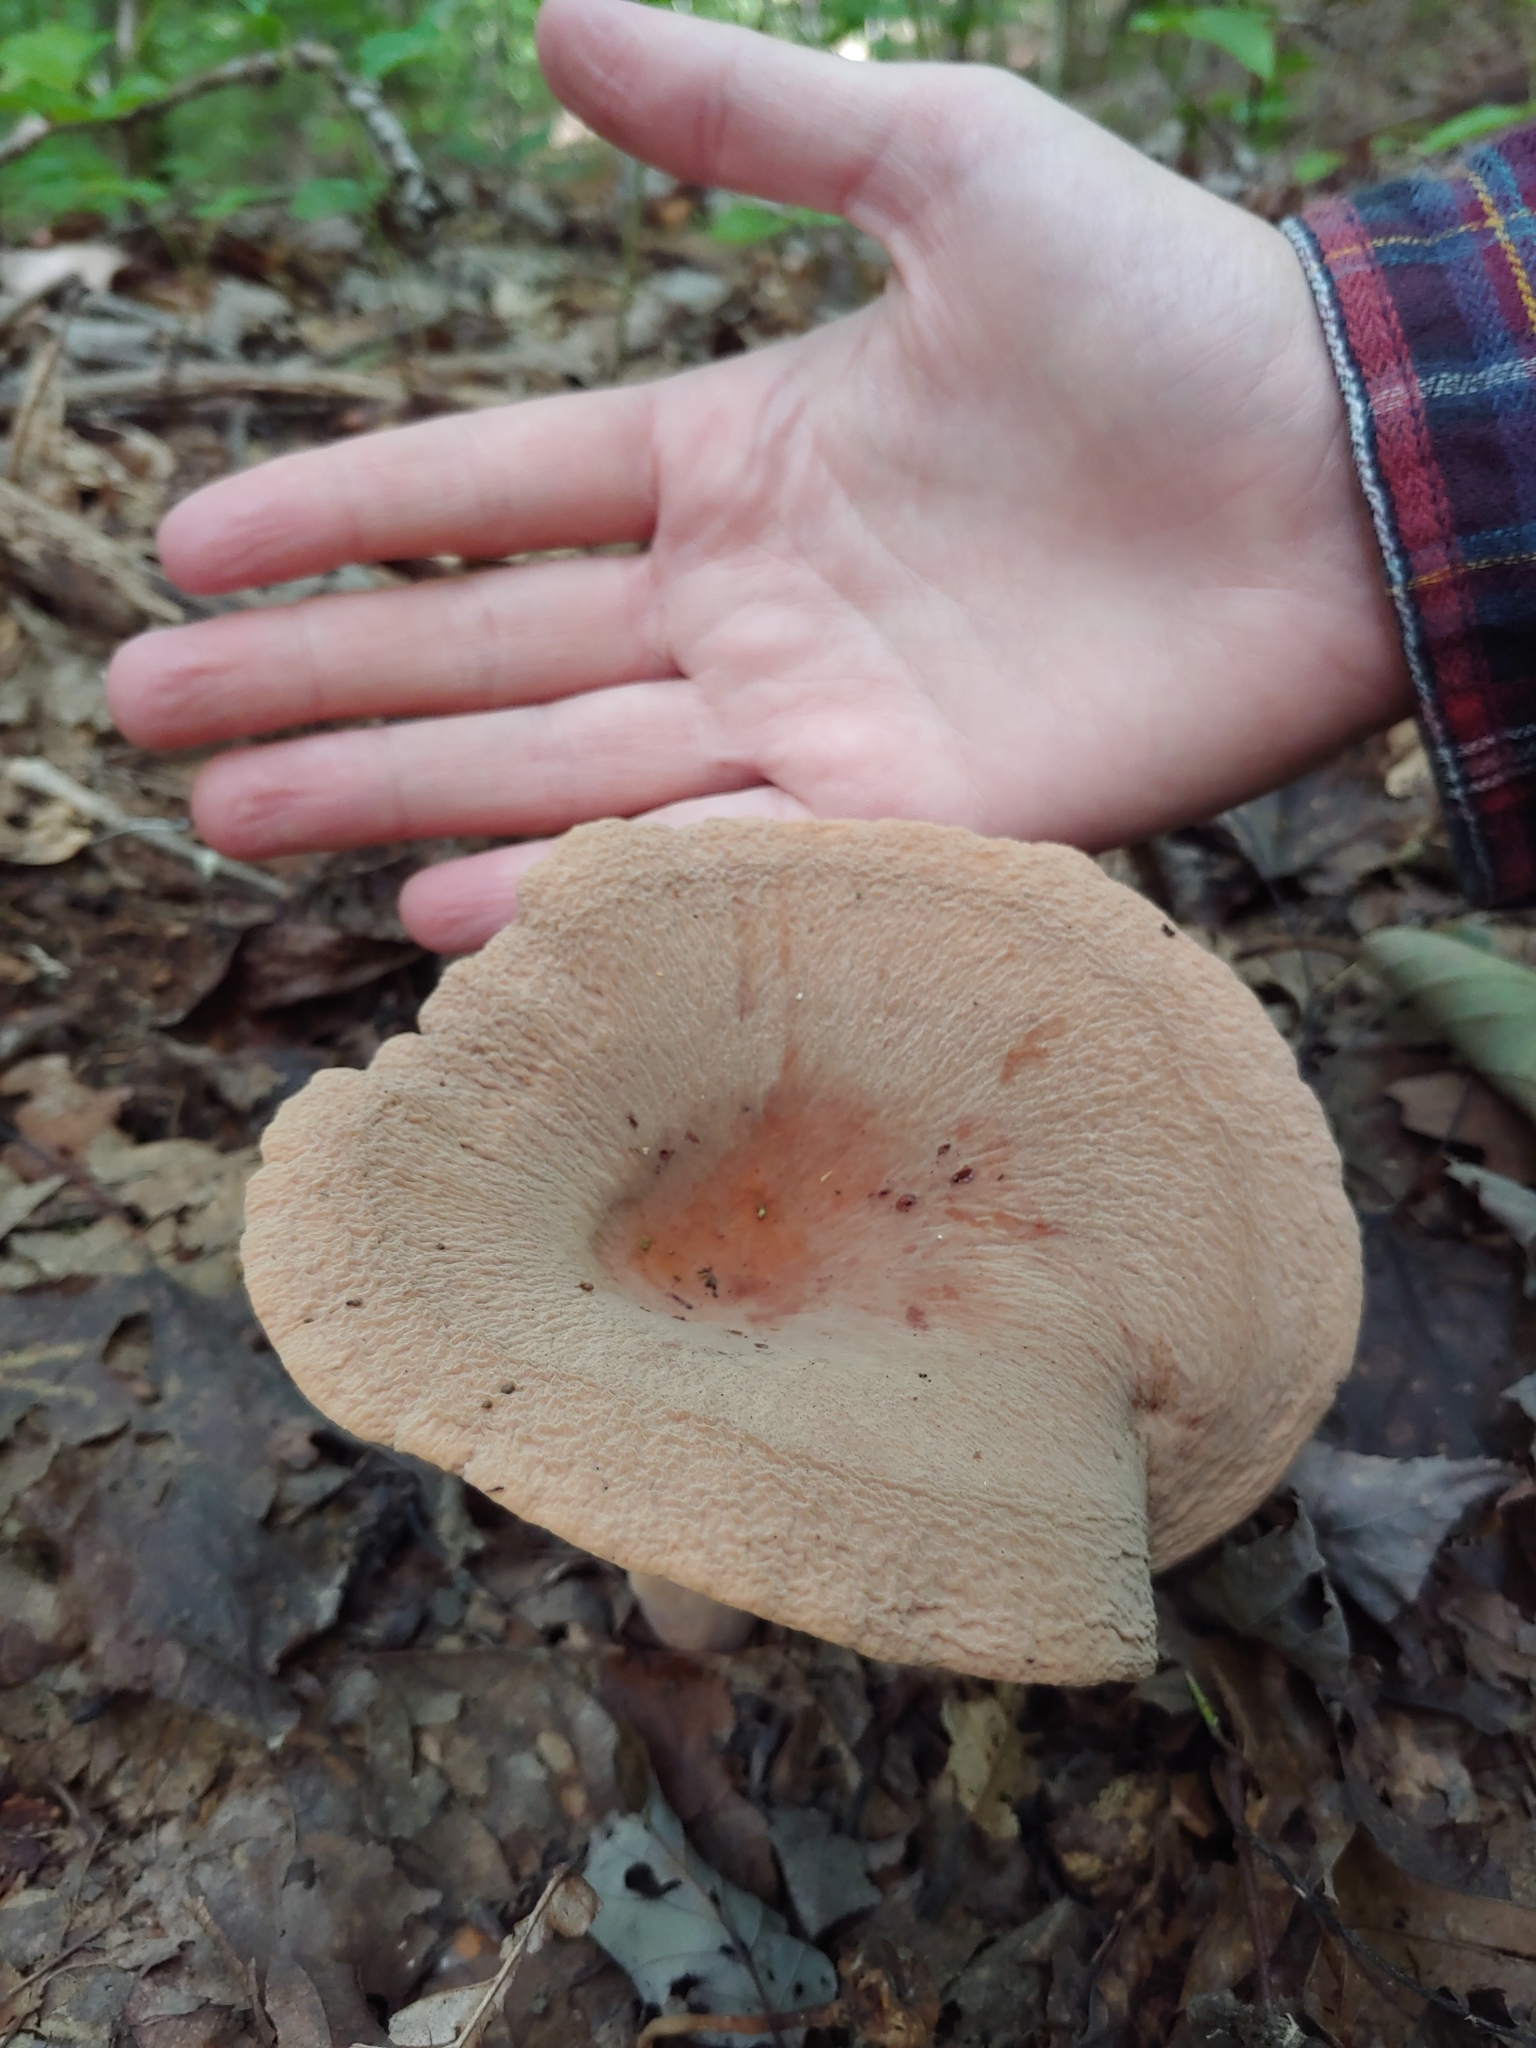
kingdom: Fungi
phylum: Basidiomycota
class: Agaricomycetes
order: Russulales
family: Russulaceae
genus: Lactarius
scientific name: Lactarius corrugis
